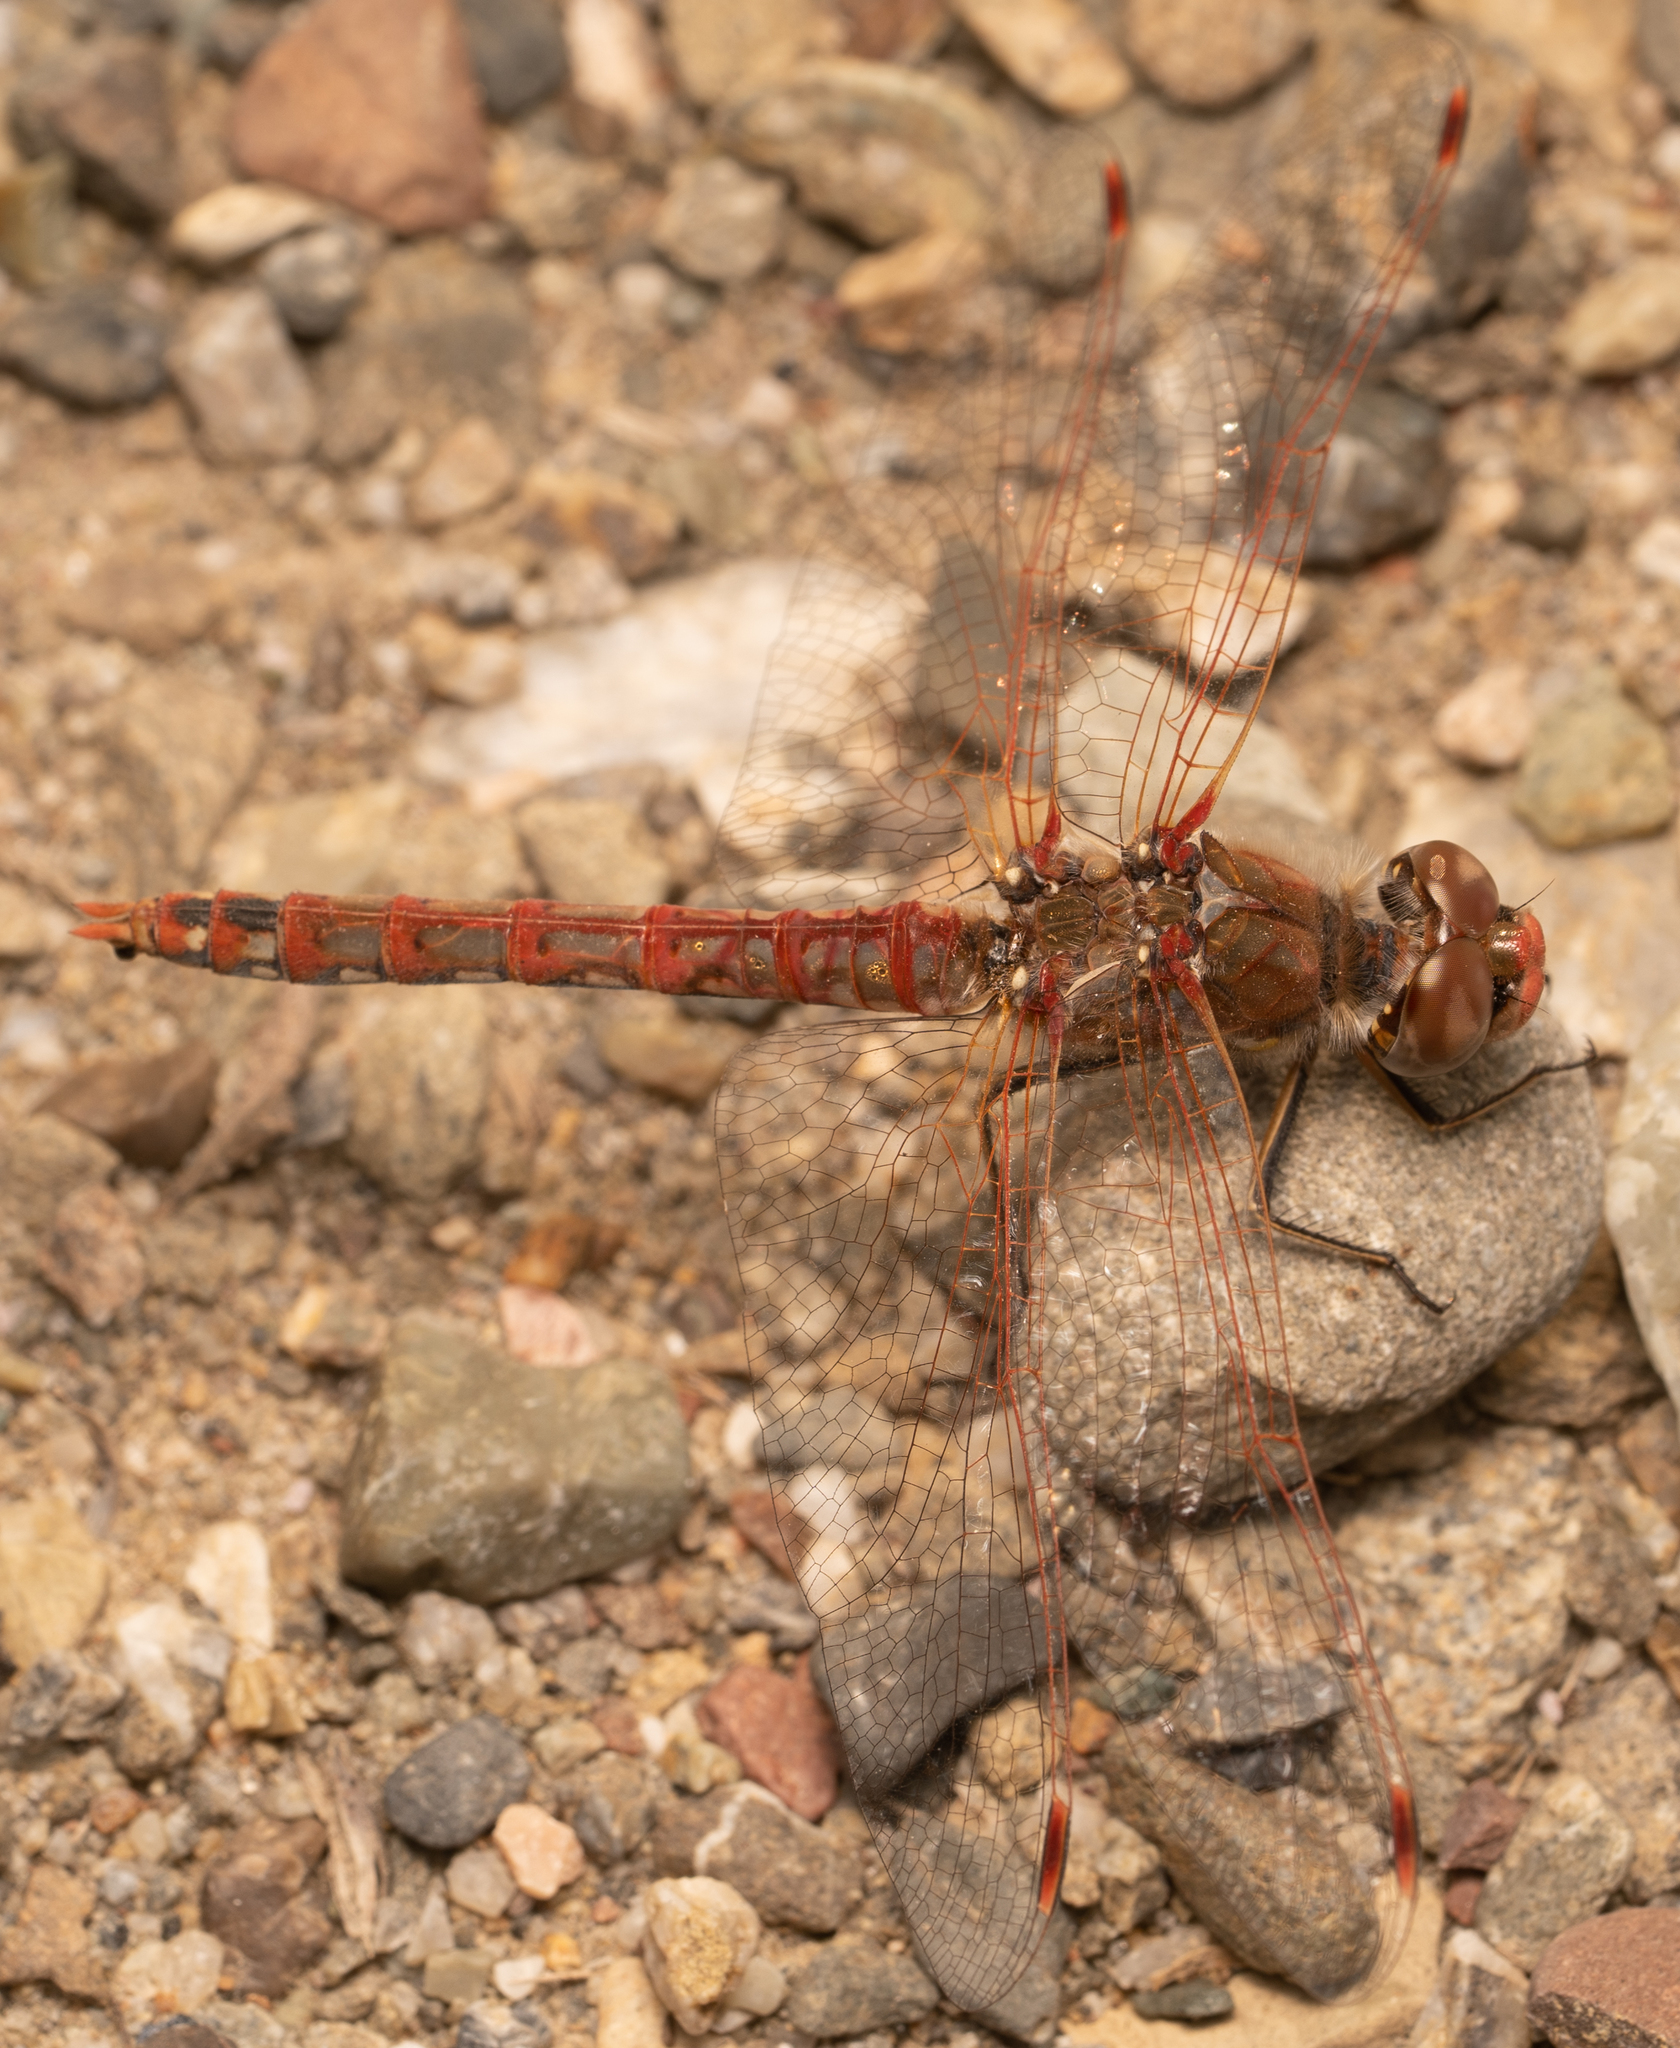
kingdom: Animalia
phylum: Arthropoda
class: Insecta
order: Odonata
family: Libellulidae
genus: Sympetrum
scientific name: Sympetrum corruptum
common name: Variegated meadowhawk
